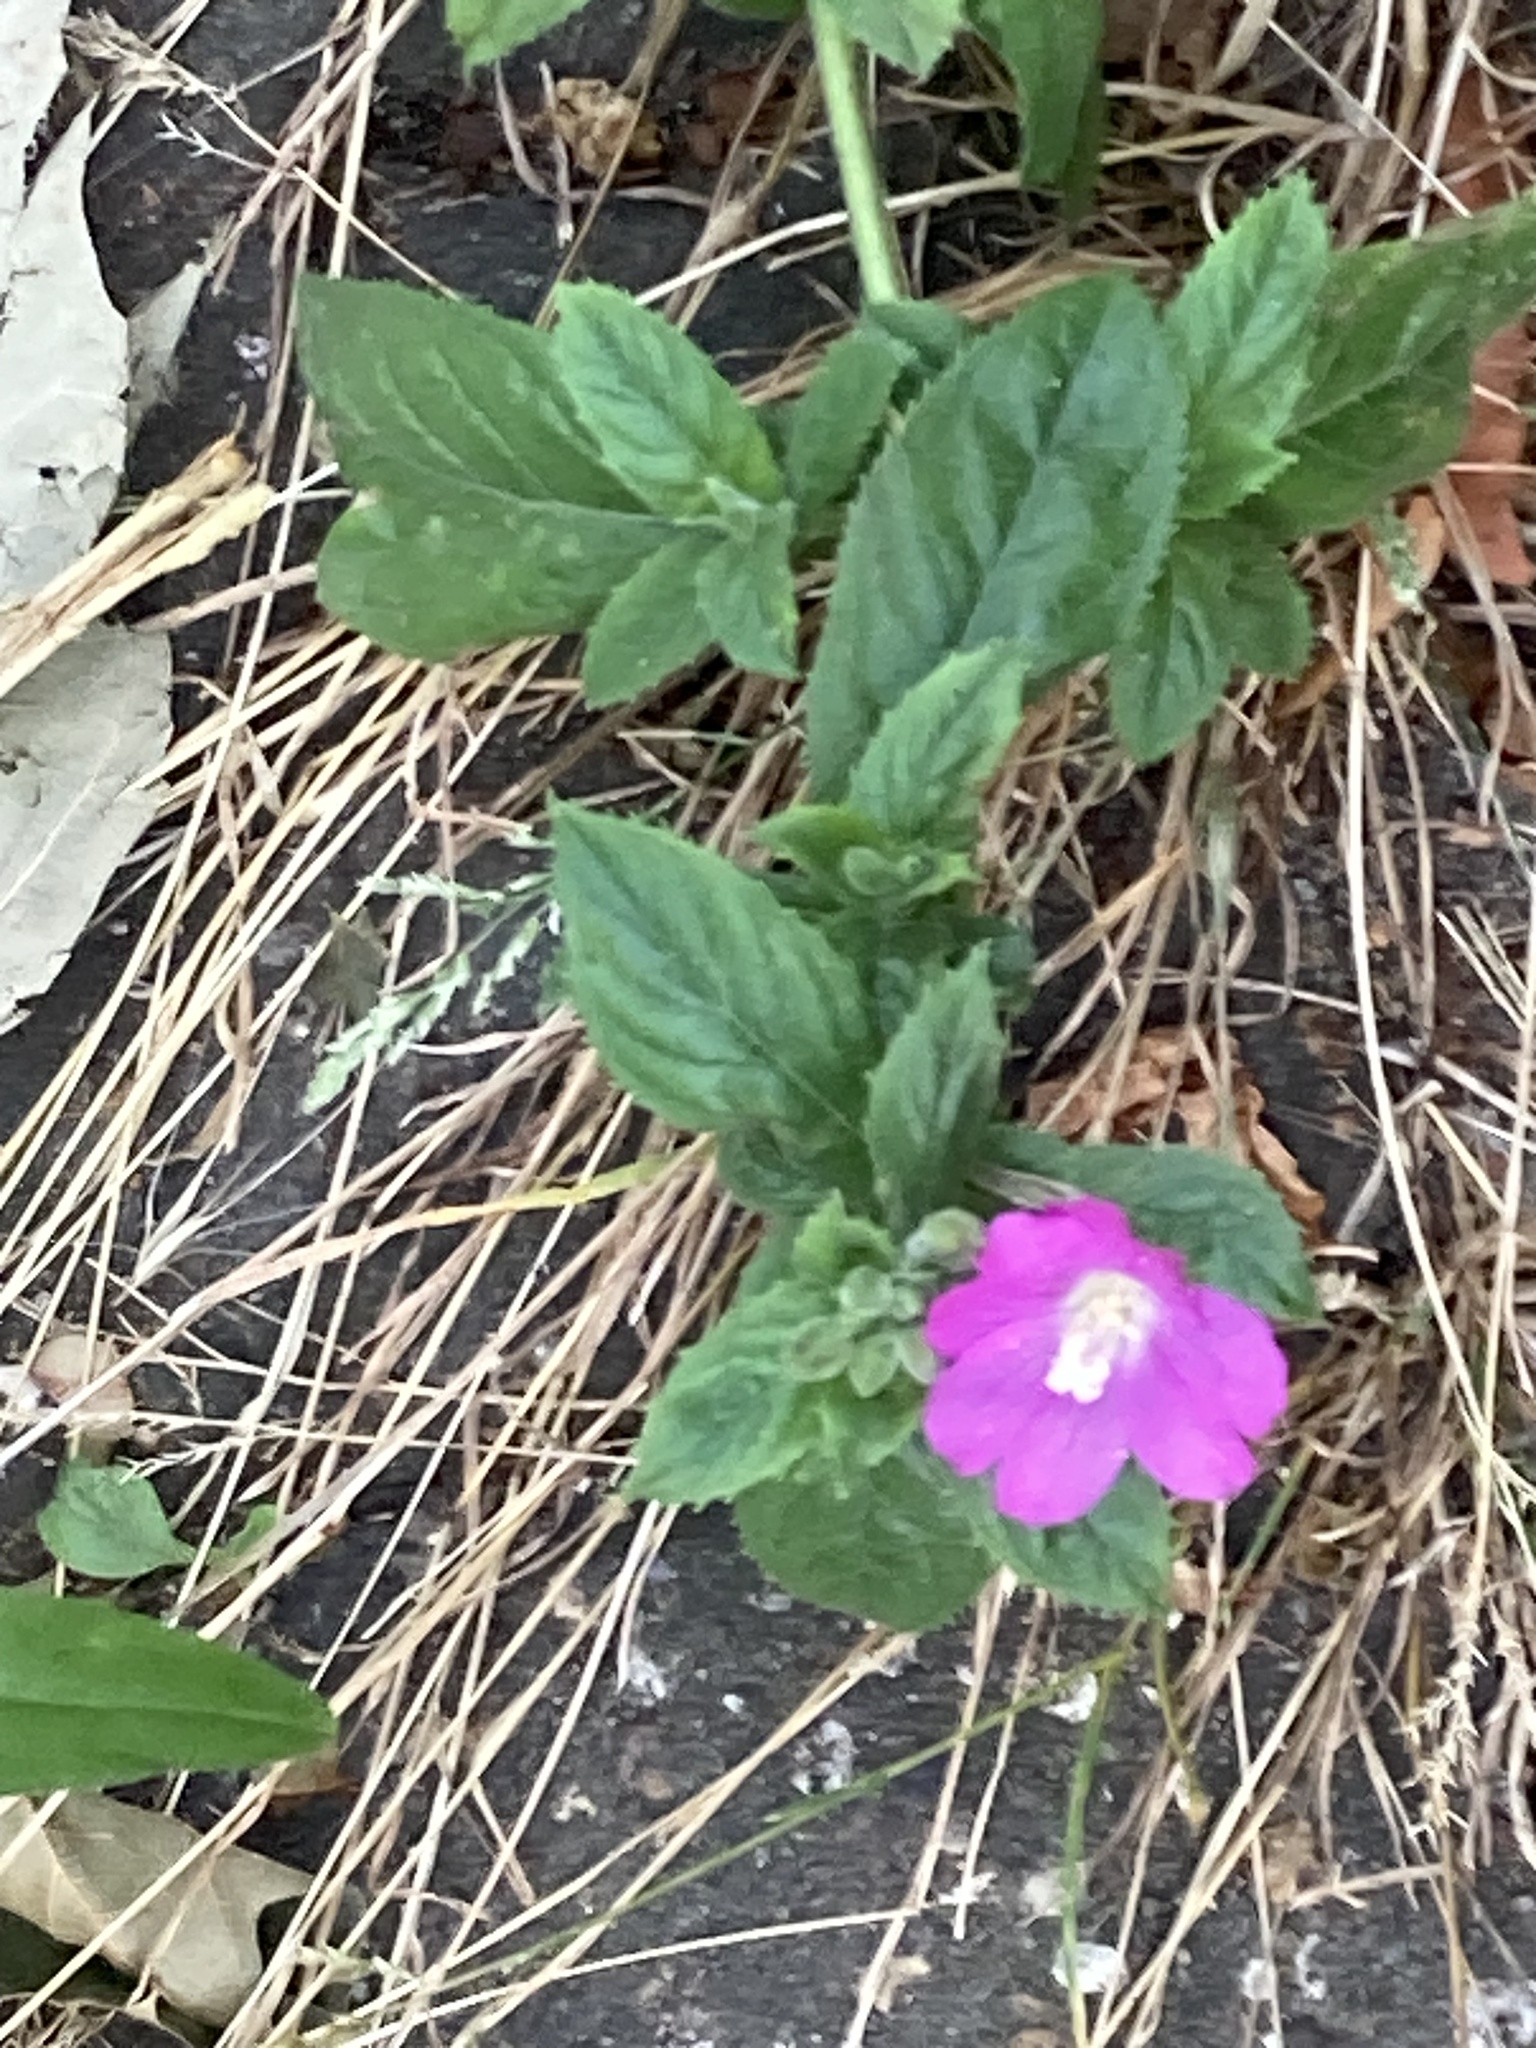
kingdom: Plantae
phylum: Tracheophyta
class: Magnoliopsida
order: Myrtales
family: Onagraceae
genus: Epilobium
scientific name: Epilobium hirsutum
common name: Great willowherb
